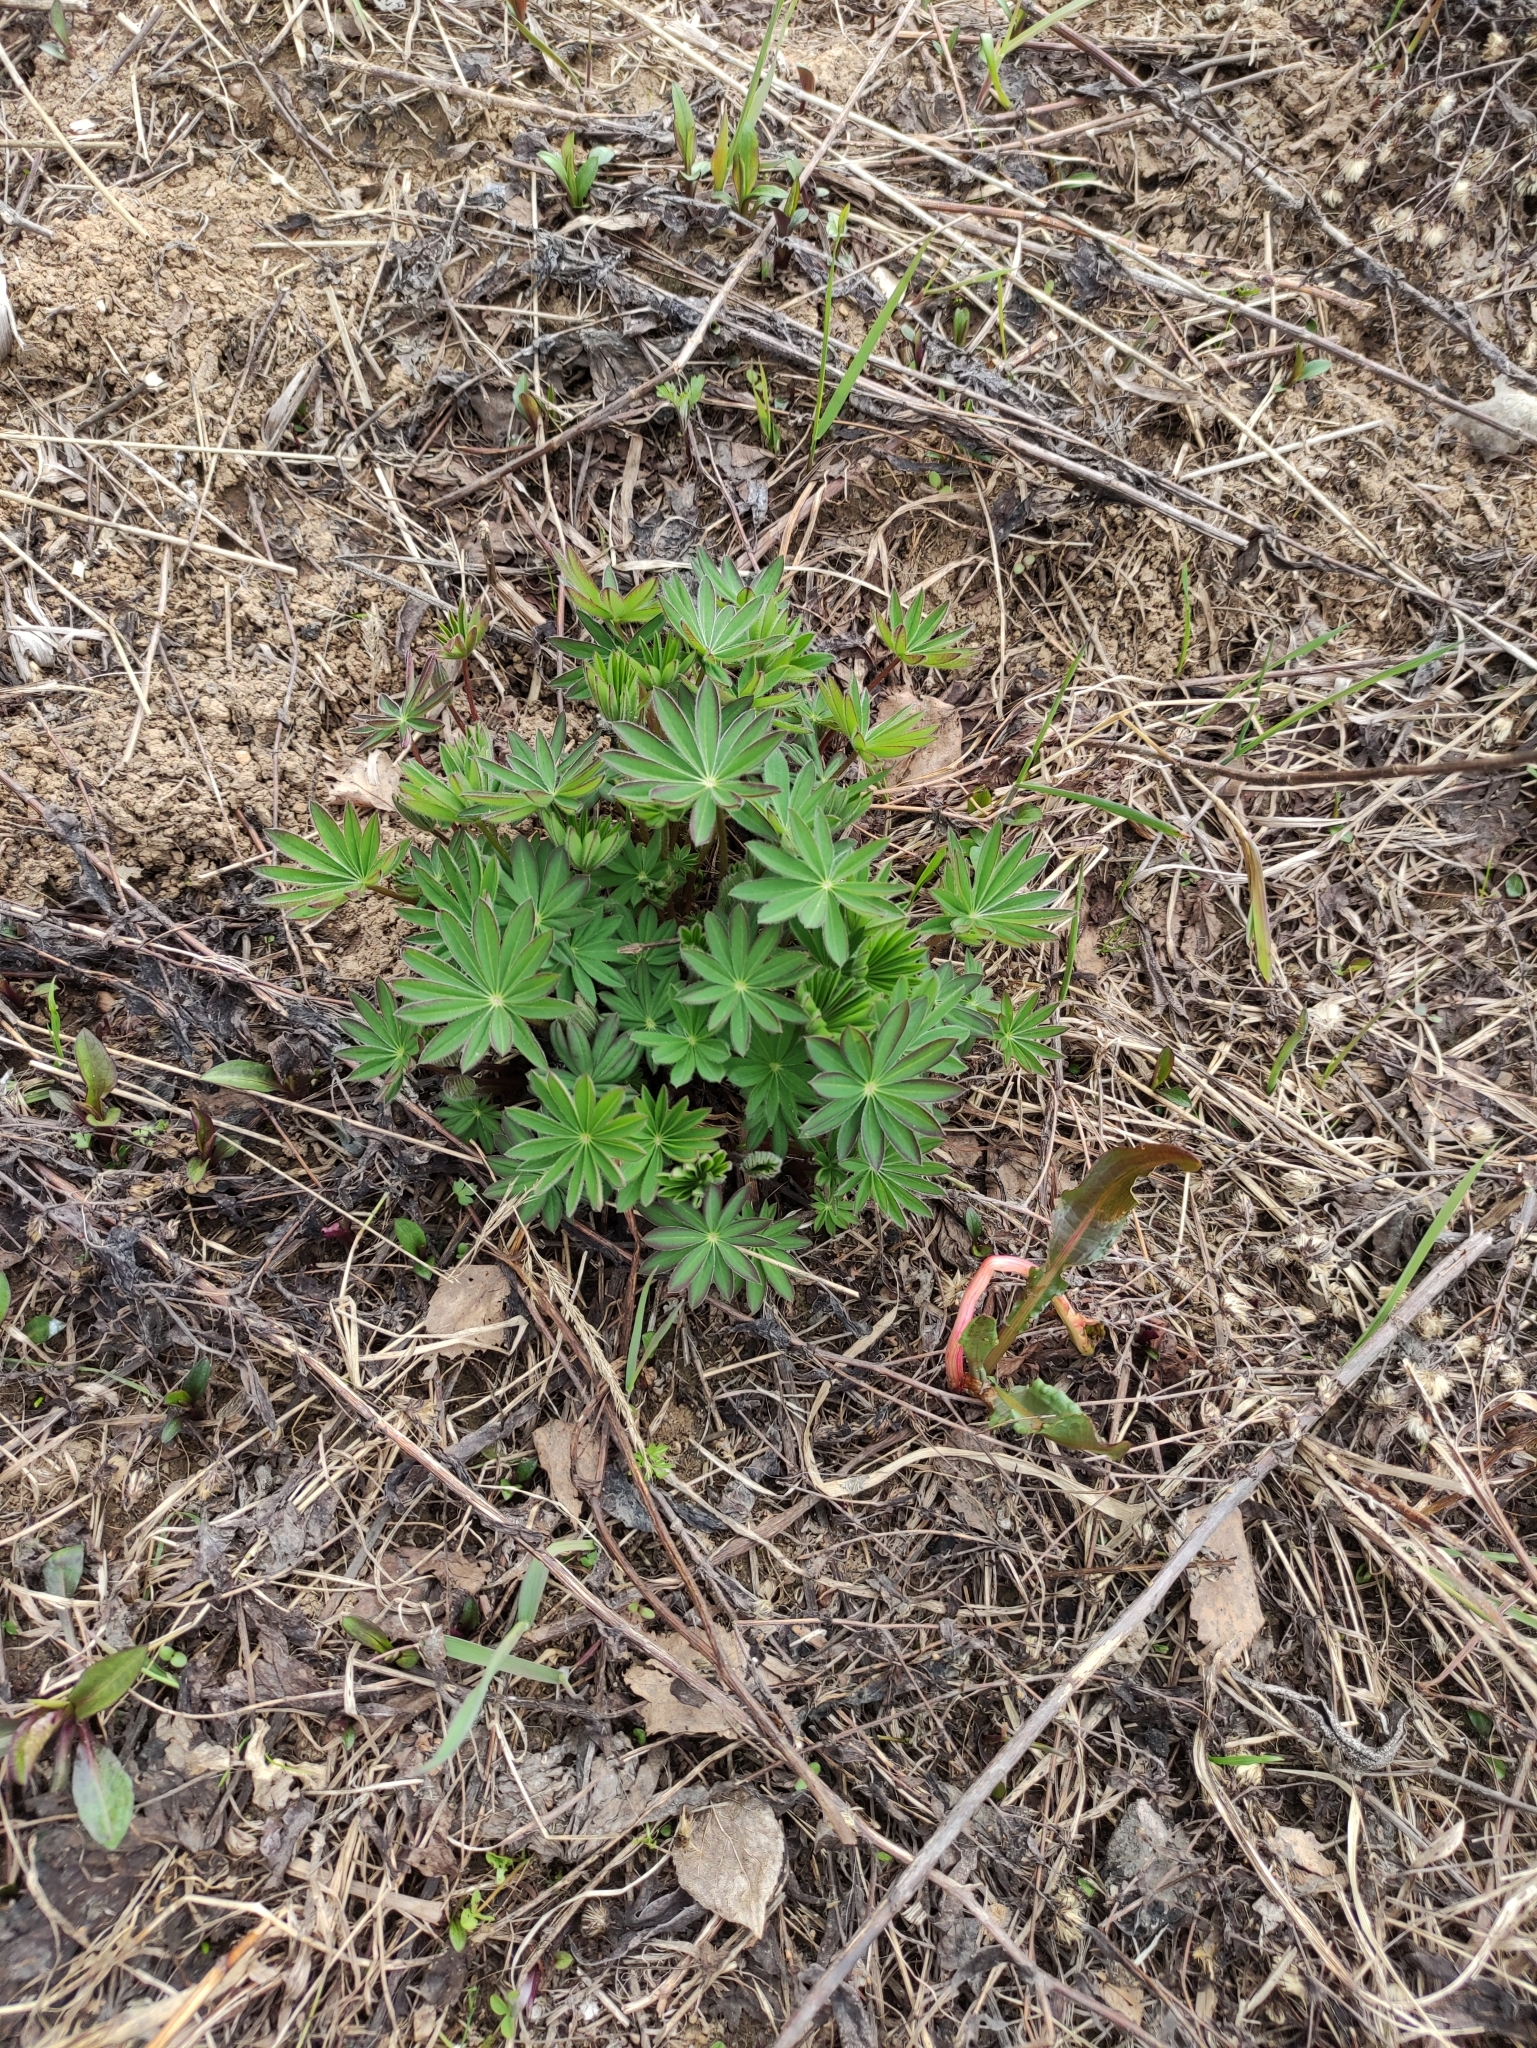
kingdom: Plantae
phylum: Tracheophyta
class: Magnoliopsida
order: Fabales
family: Fabaceae
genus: Lupinus
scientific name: Lupinus polyphyllus
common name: Garden lupin
